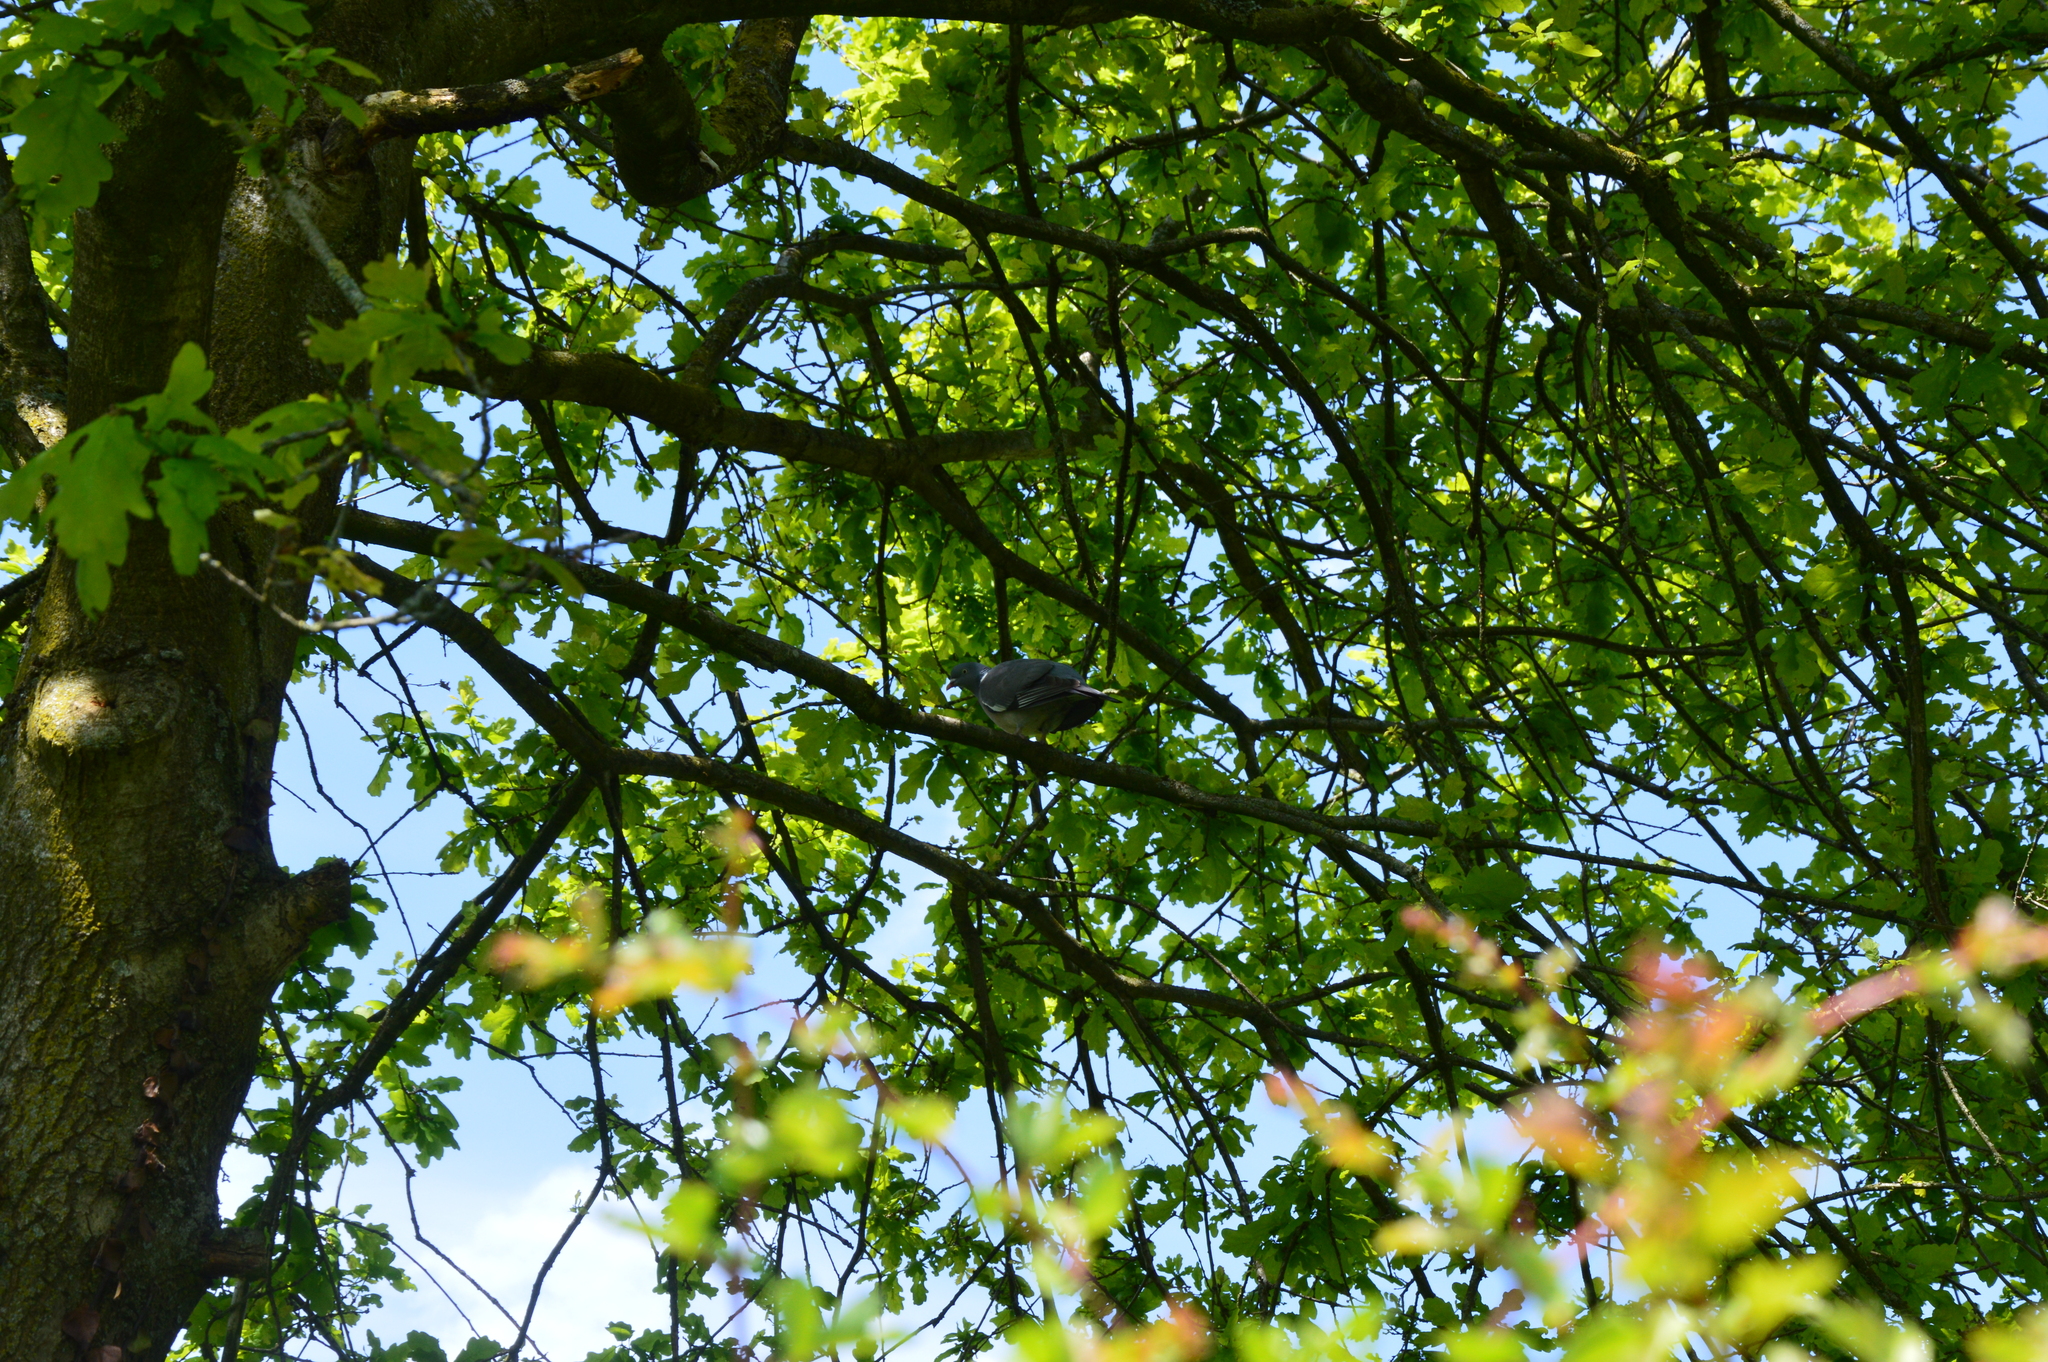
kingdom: Animalia
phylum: Chordata
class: Aves
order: Columbiformes
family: Columbidae
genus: Columba
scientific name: Columba palumbus
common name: Common wood pigeon
